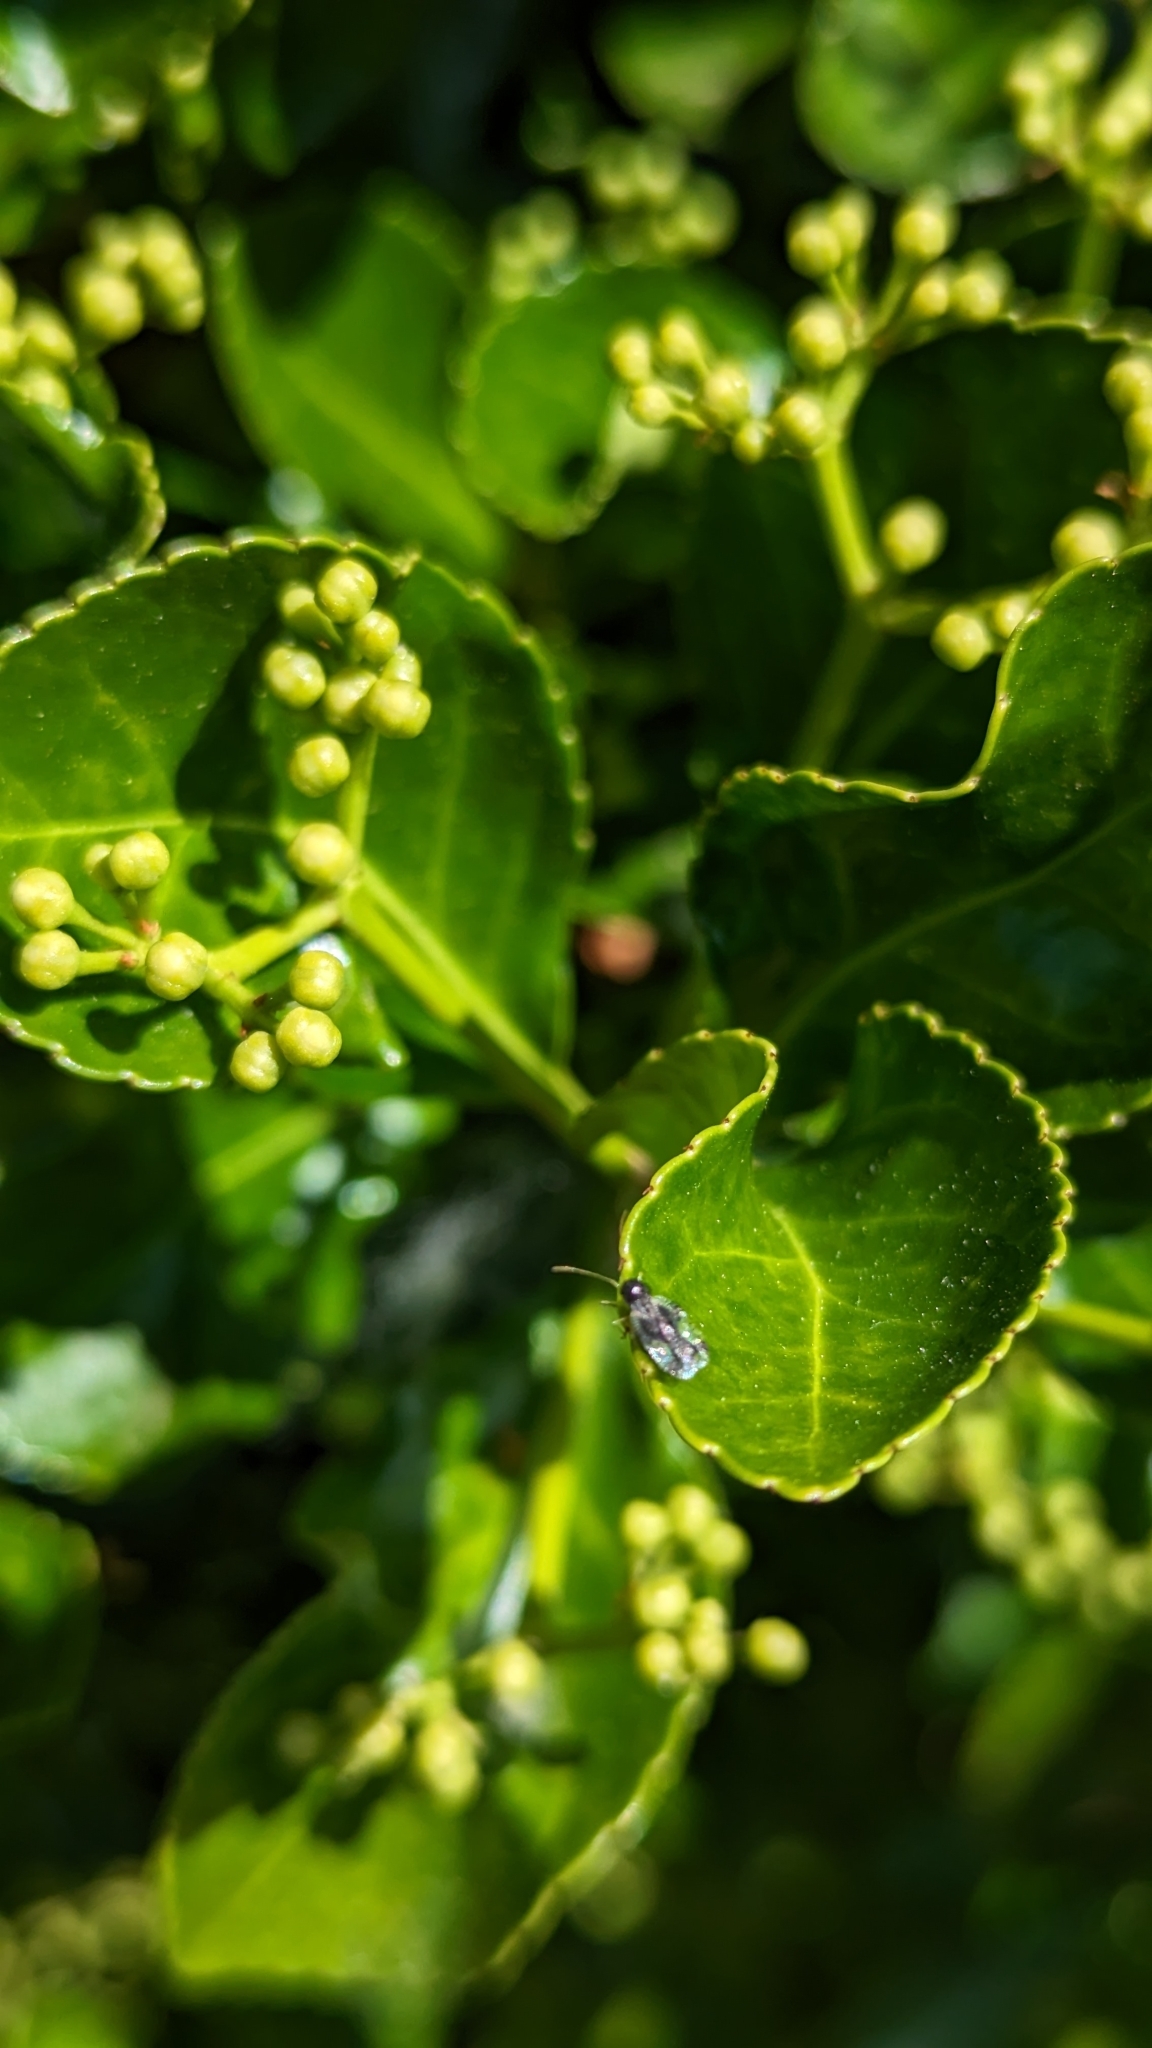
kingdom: Animalia
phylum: Arthropoda
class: Insecta
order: Hemiptera
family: Tingidae
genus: Stephanitis
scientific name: Stephanitis takeyai
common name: Andromeda lacebug
